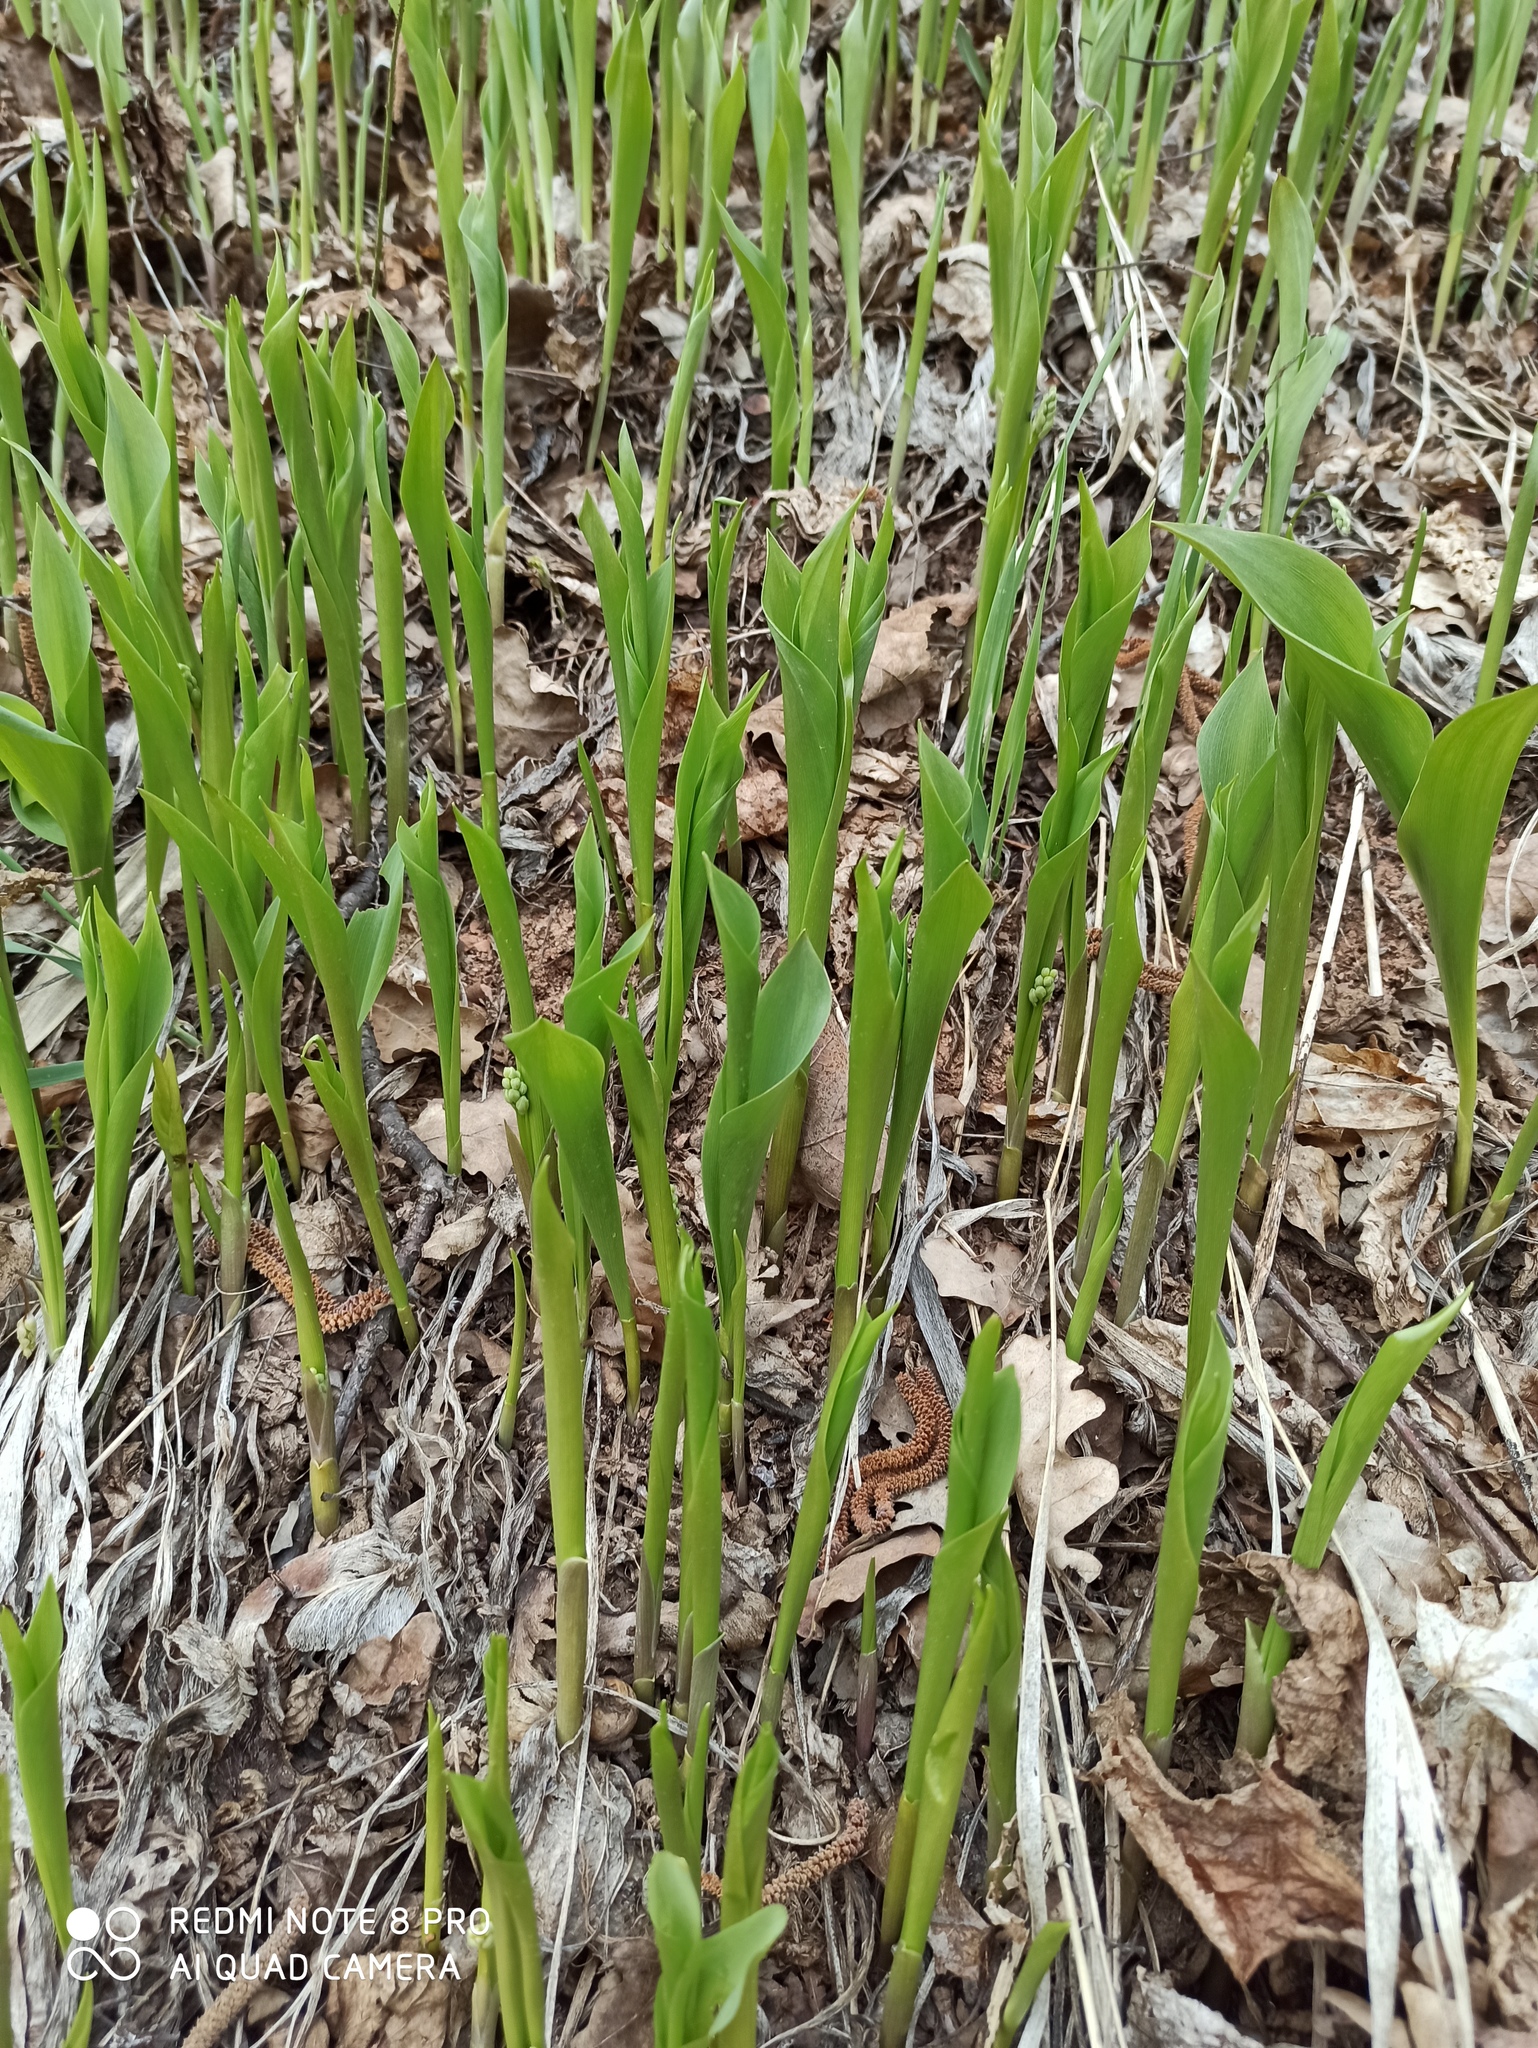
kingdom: Plantae
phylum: Tracheophyta
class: Liliopsida
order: Asparagales
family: Asparagaceae
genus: Convallaria
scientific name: Convallaria majalis
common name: Lily-of-the-valley
